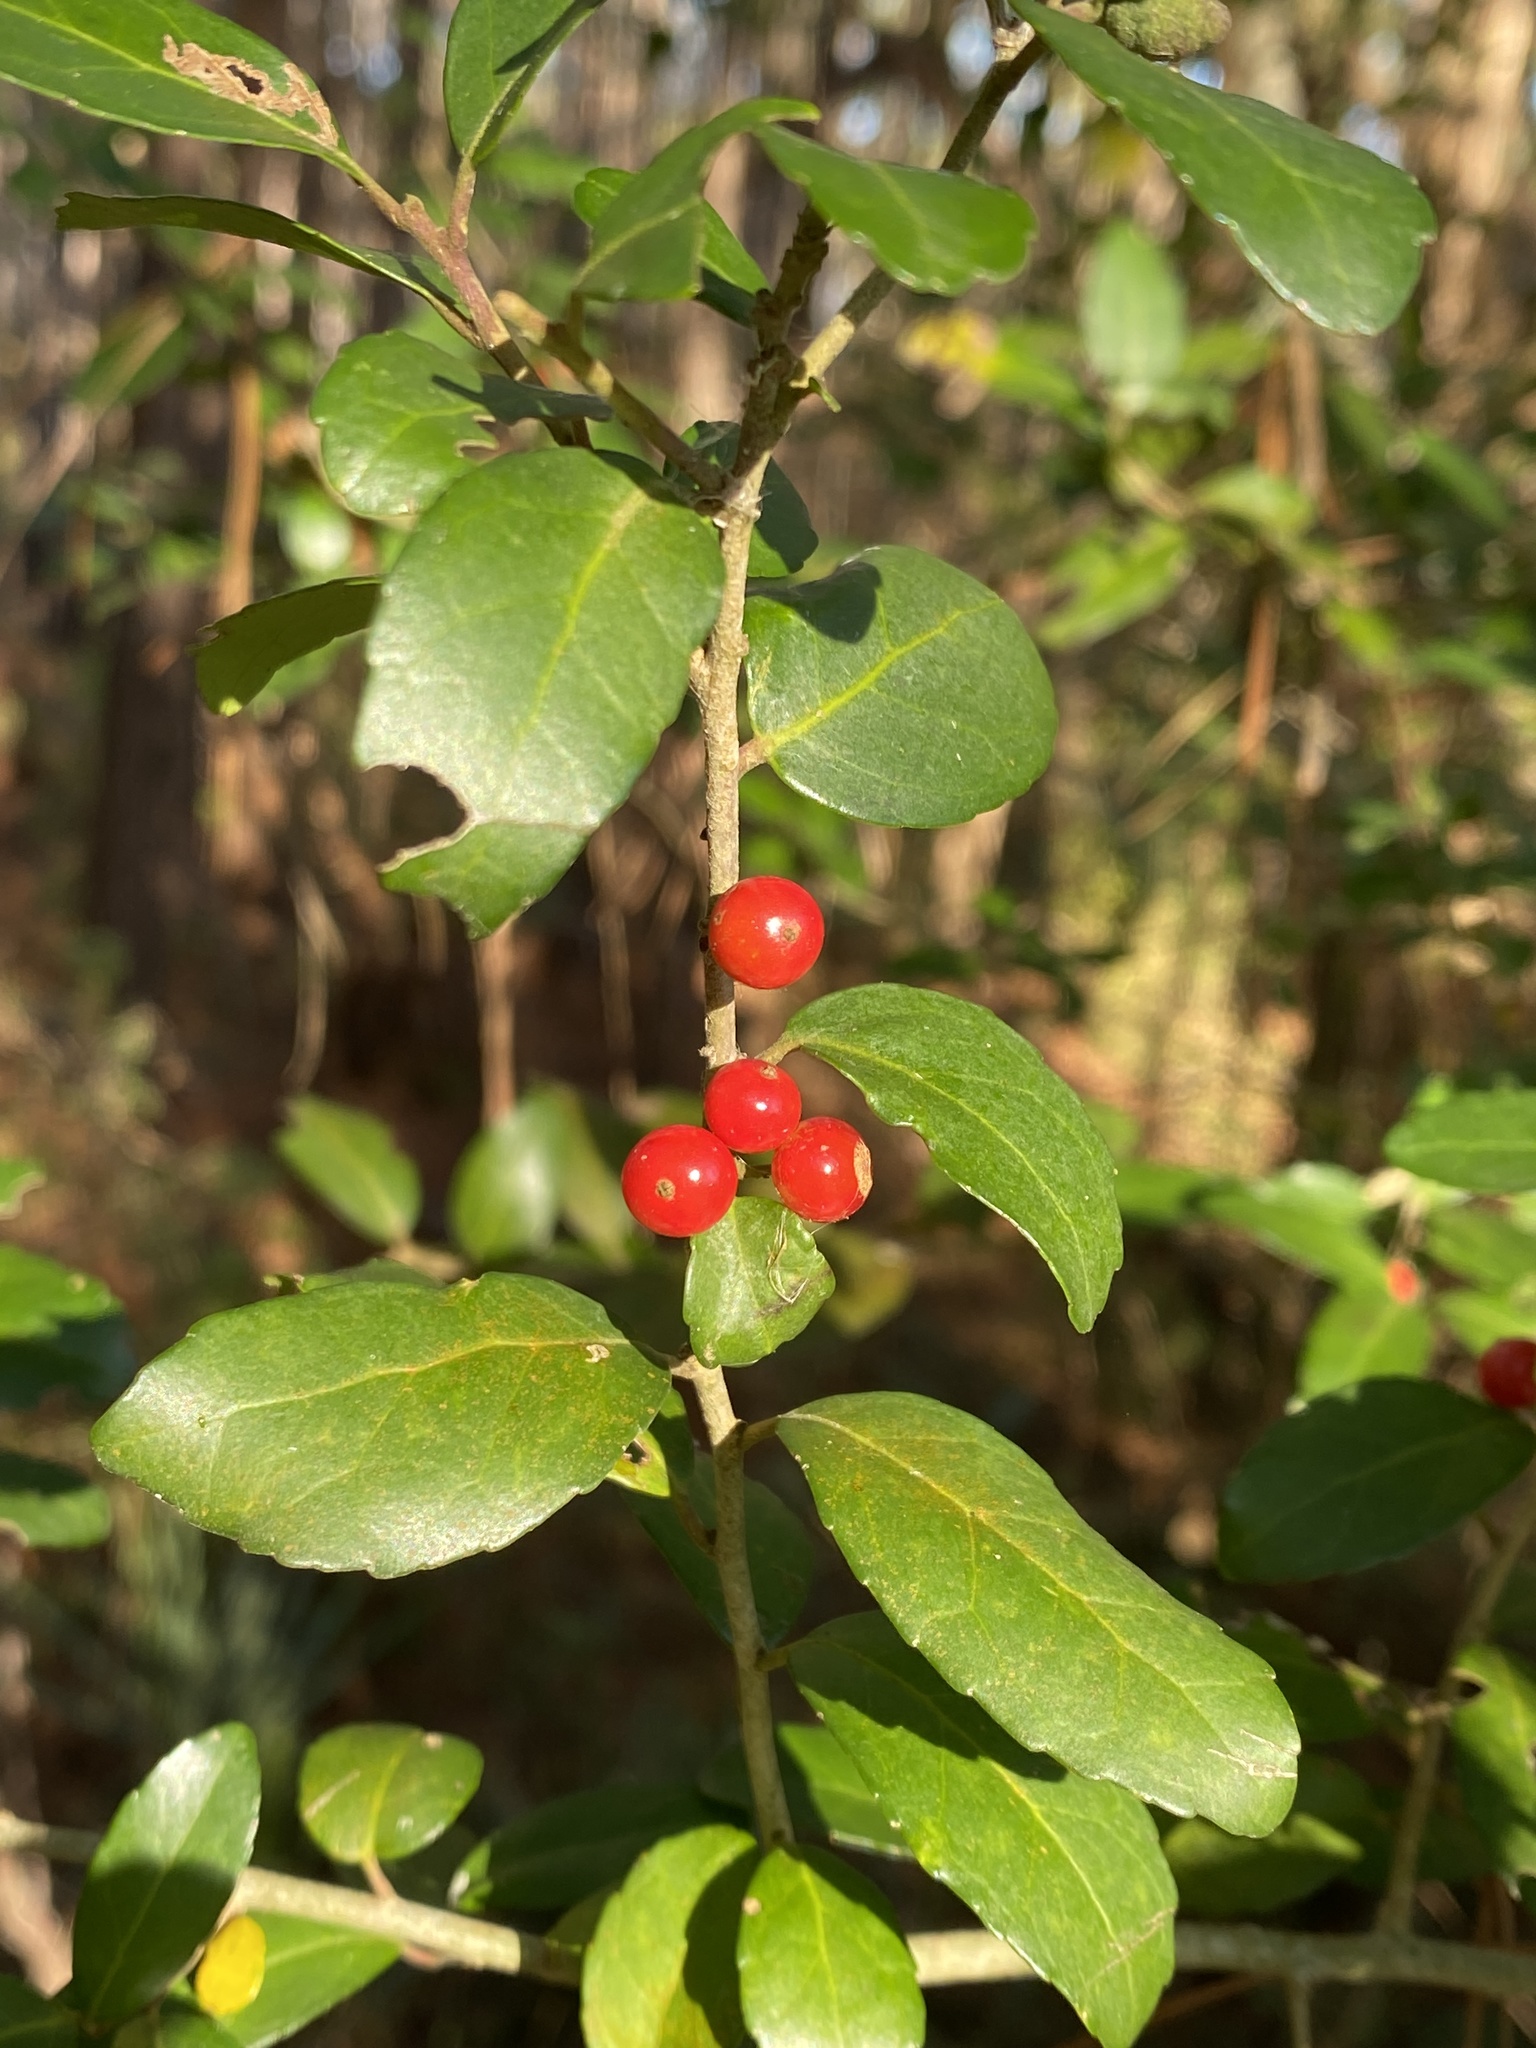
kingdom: Plantae
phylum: Tracheophyta
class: Magnoliopsida
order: Aquifoliales
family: Aquifoliaceae
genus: Ilex
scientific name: Ilex vomitoria
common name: Yaupon holly
